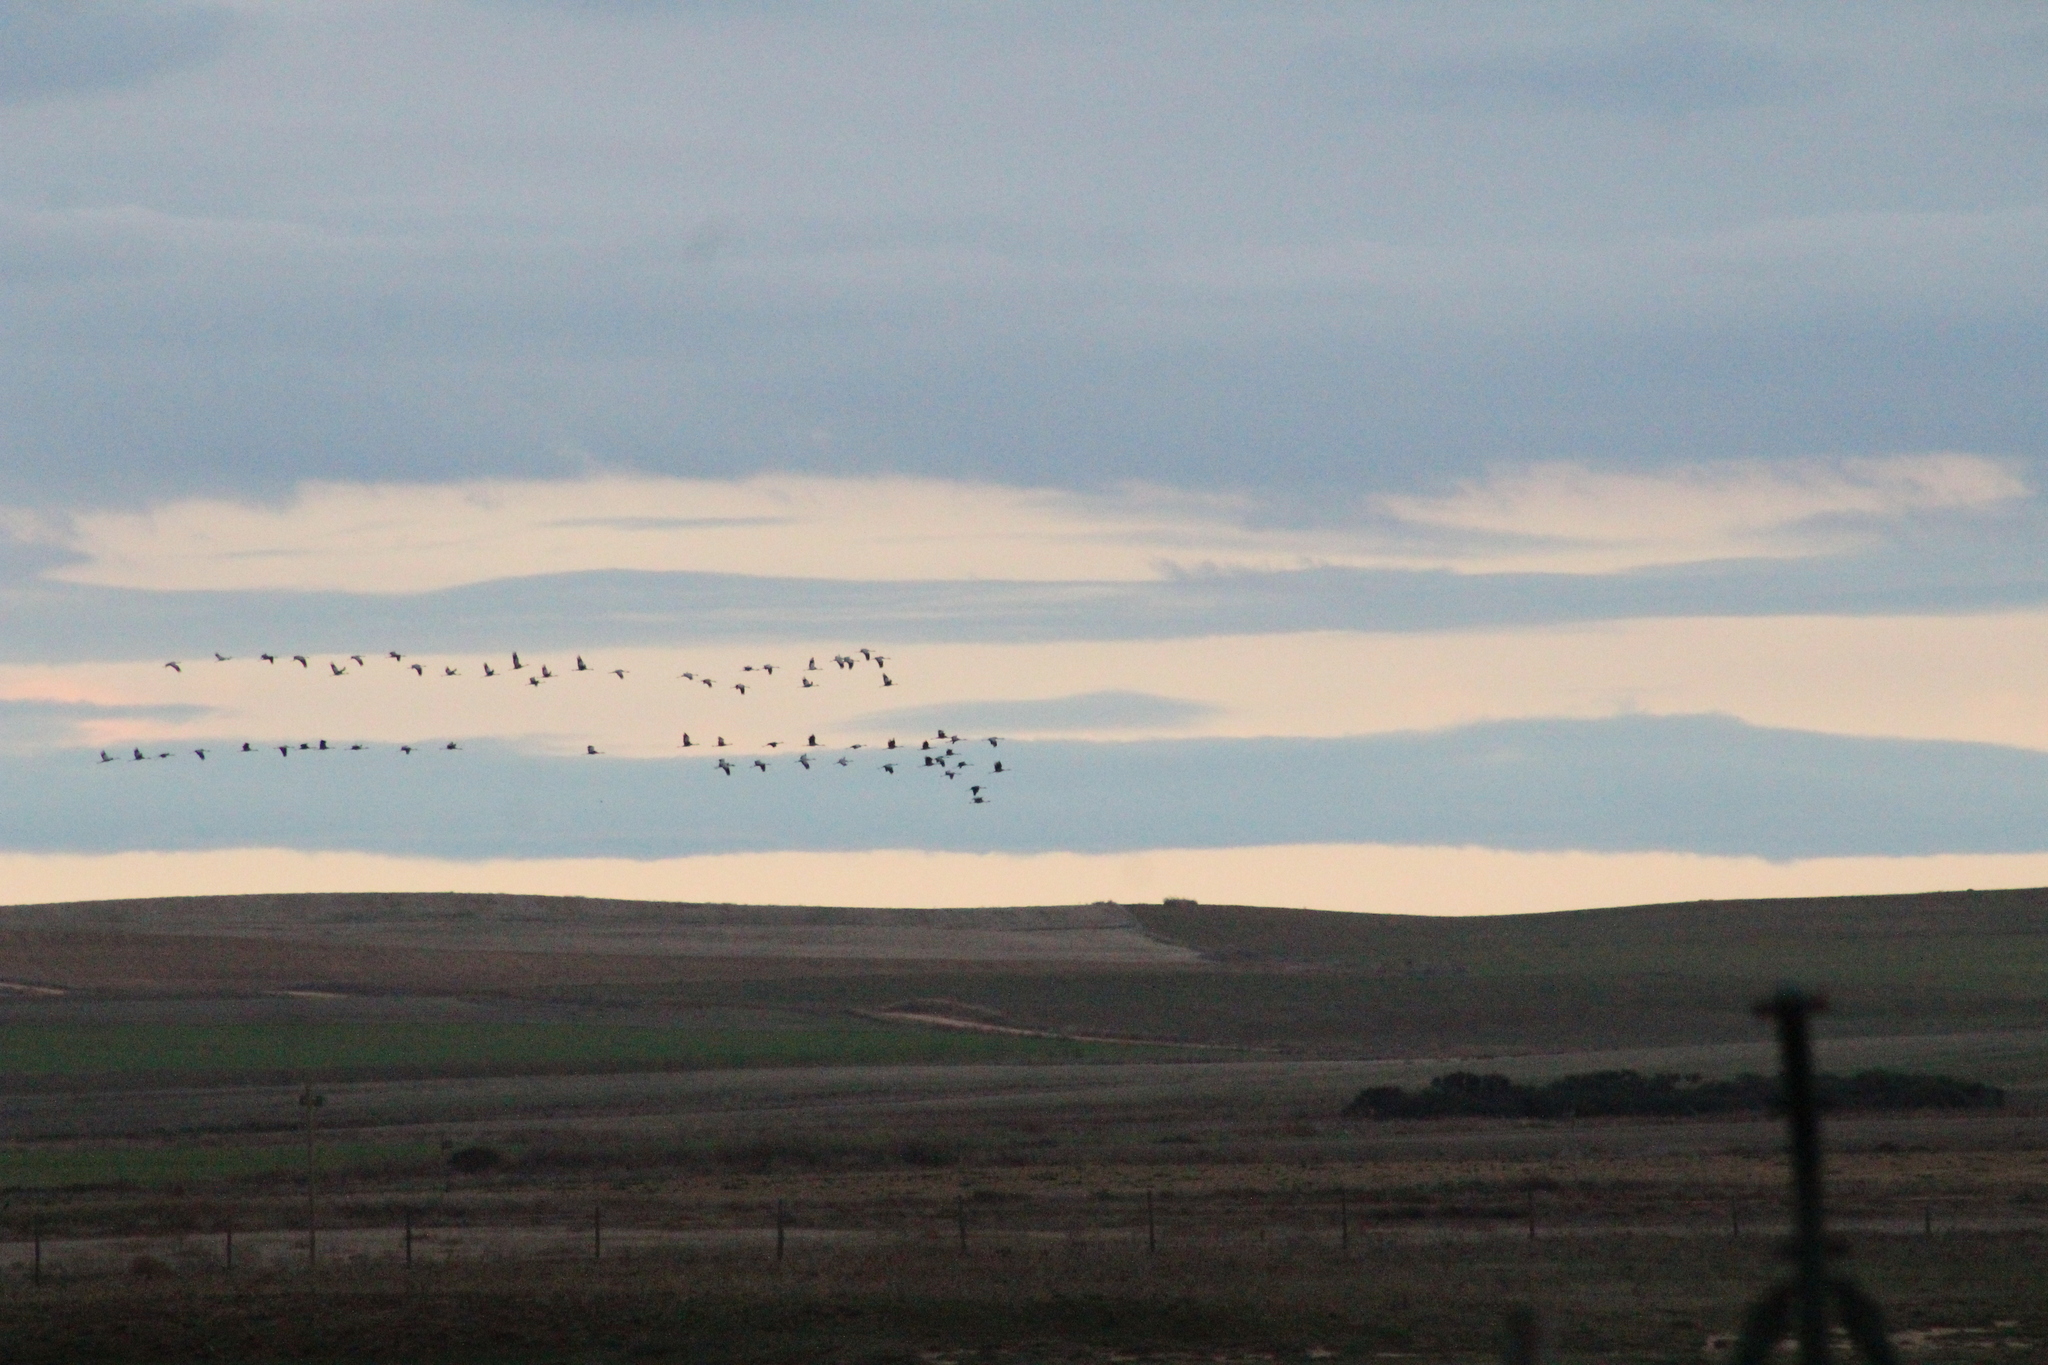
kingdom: Animalia
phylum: Chordata
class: Aves
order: Gruiformes
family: Gruidae
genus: Grus
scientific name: Grus grus
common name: Common crane
